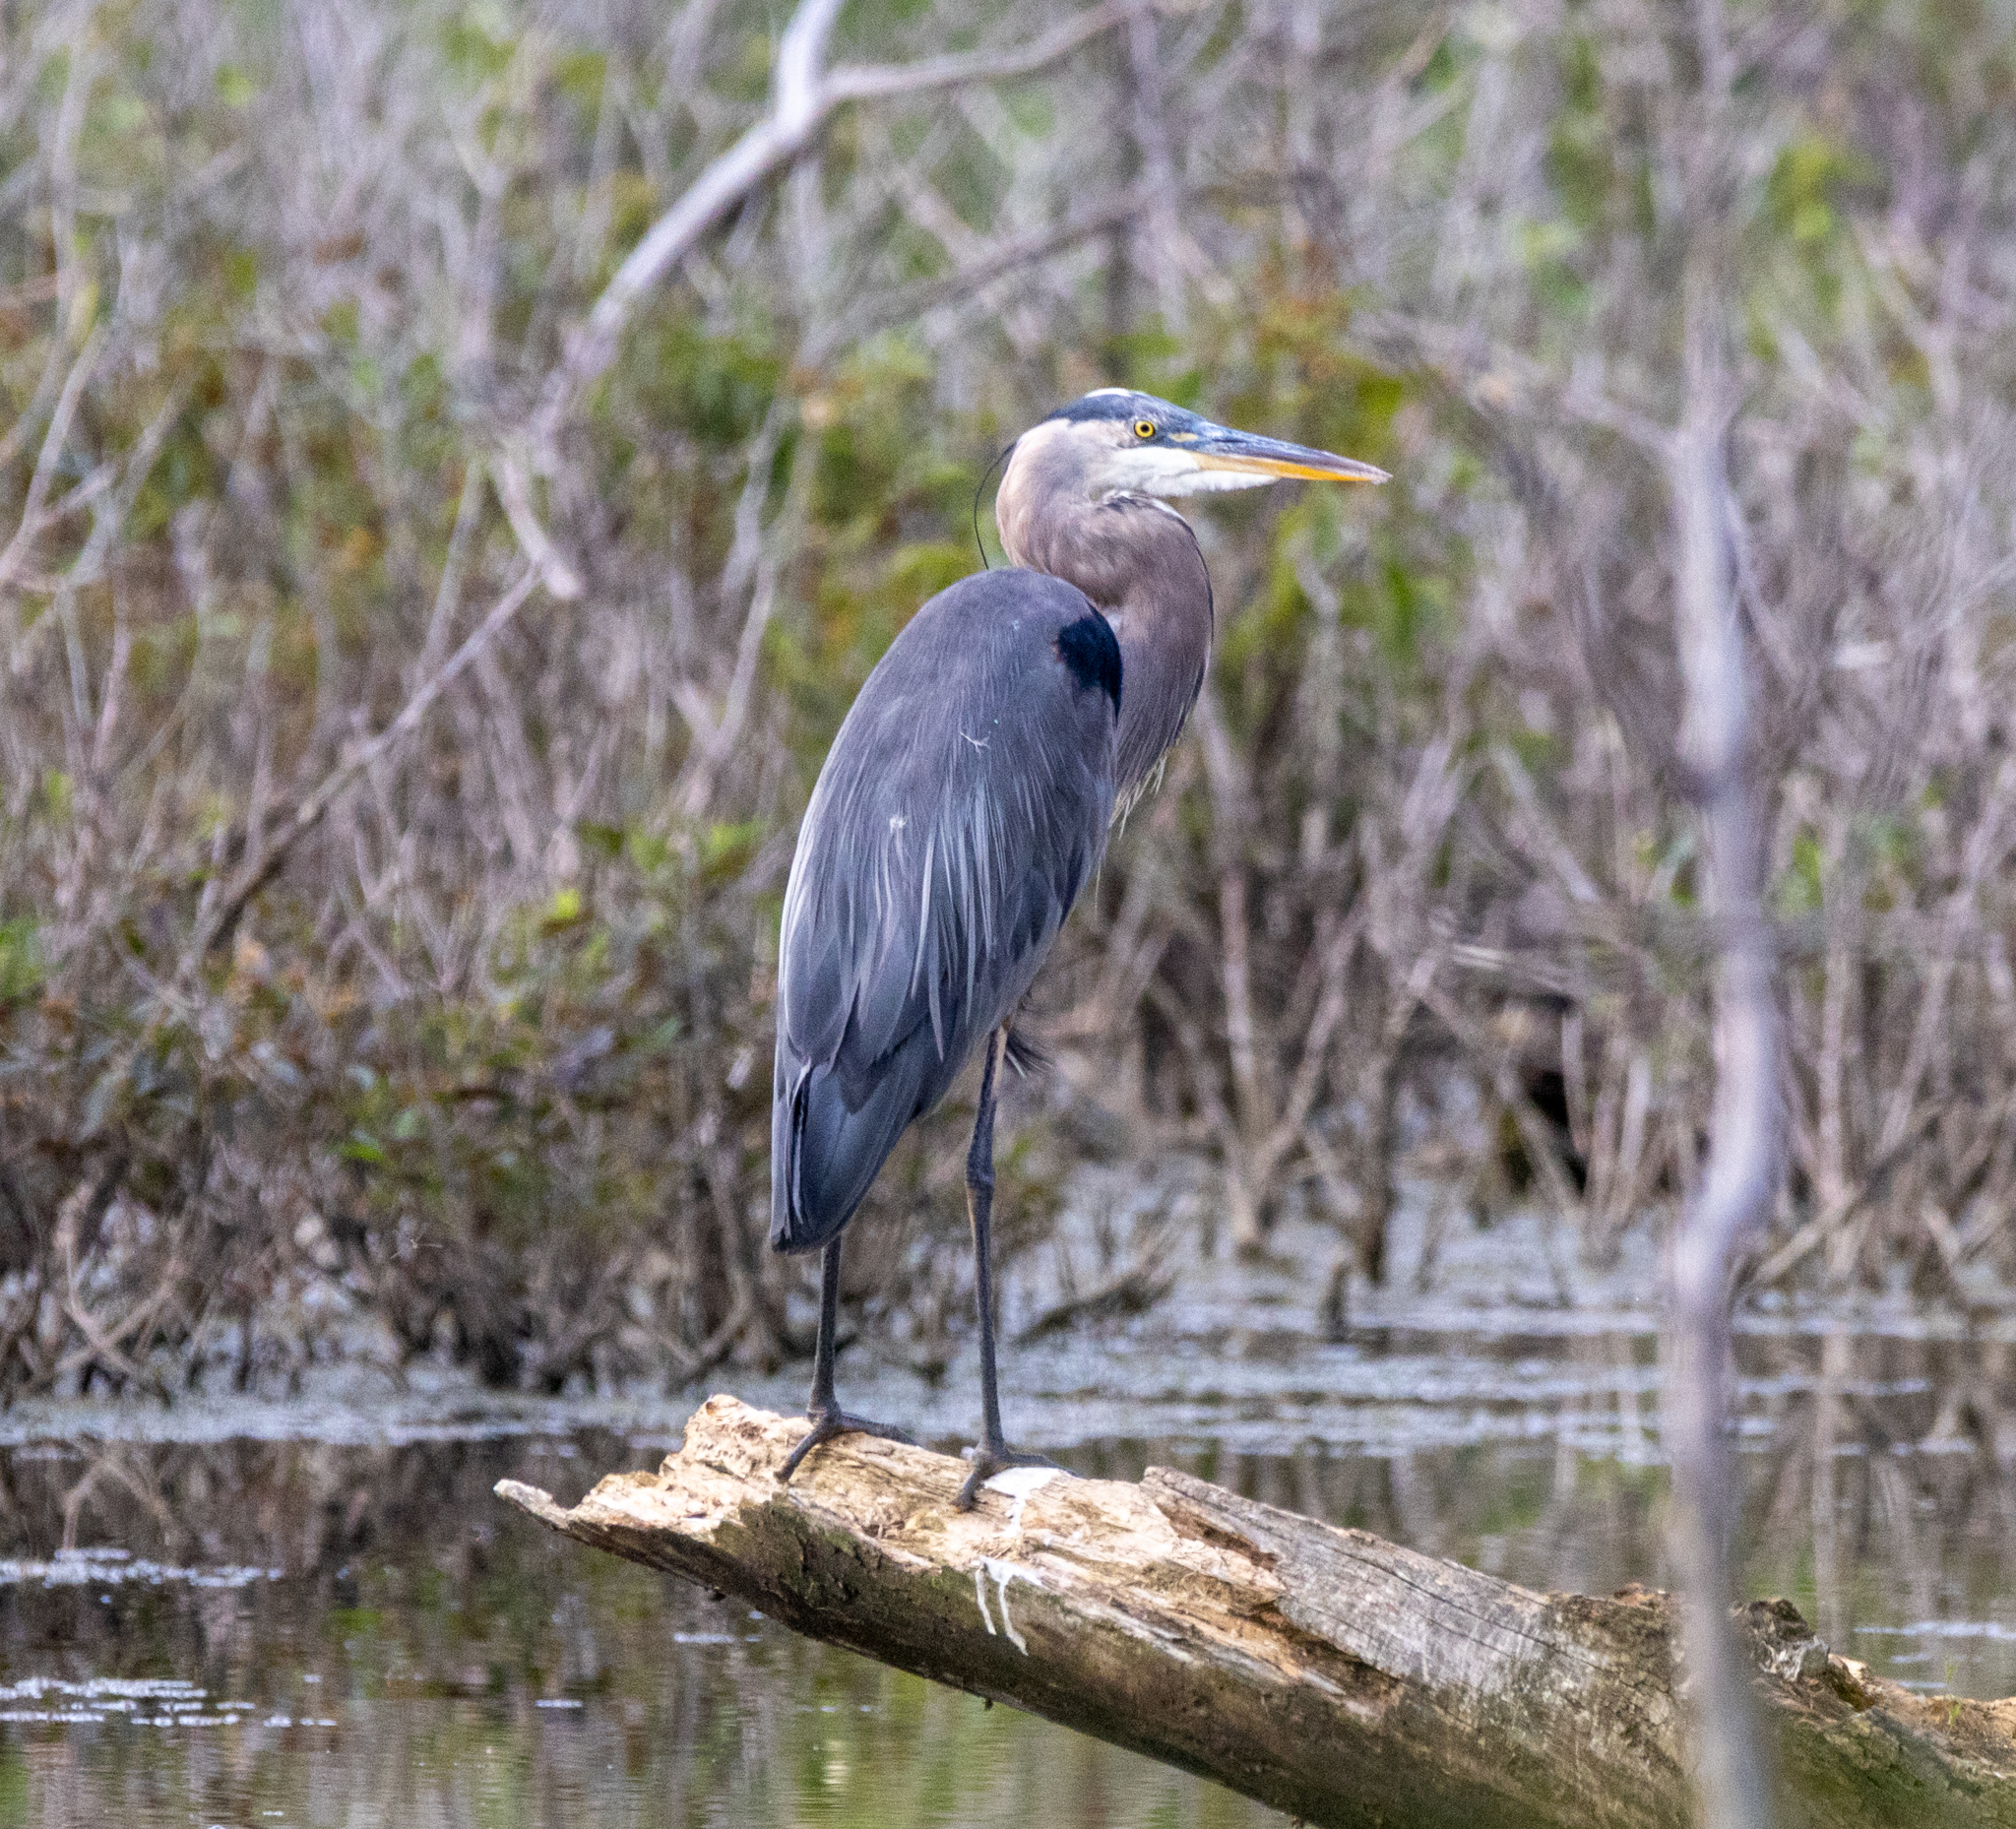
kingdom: Animalia
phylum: Chordata
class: Aves
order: Pelecaniformes
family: Ardeidae
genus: Ardea
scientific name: Ardea herodias
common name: Great blue heron
